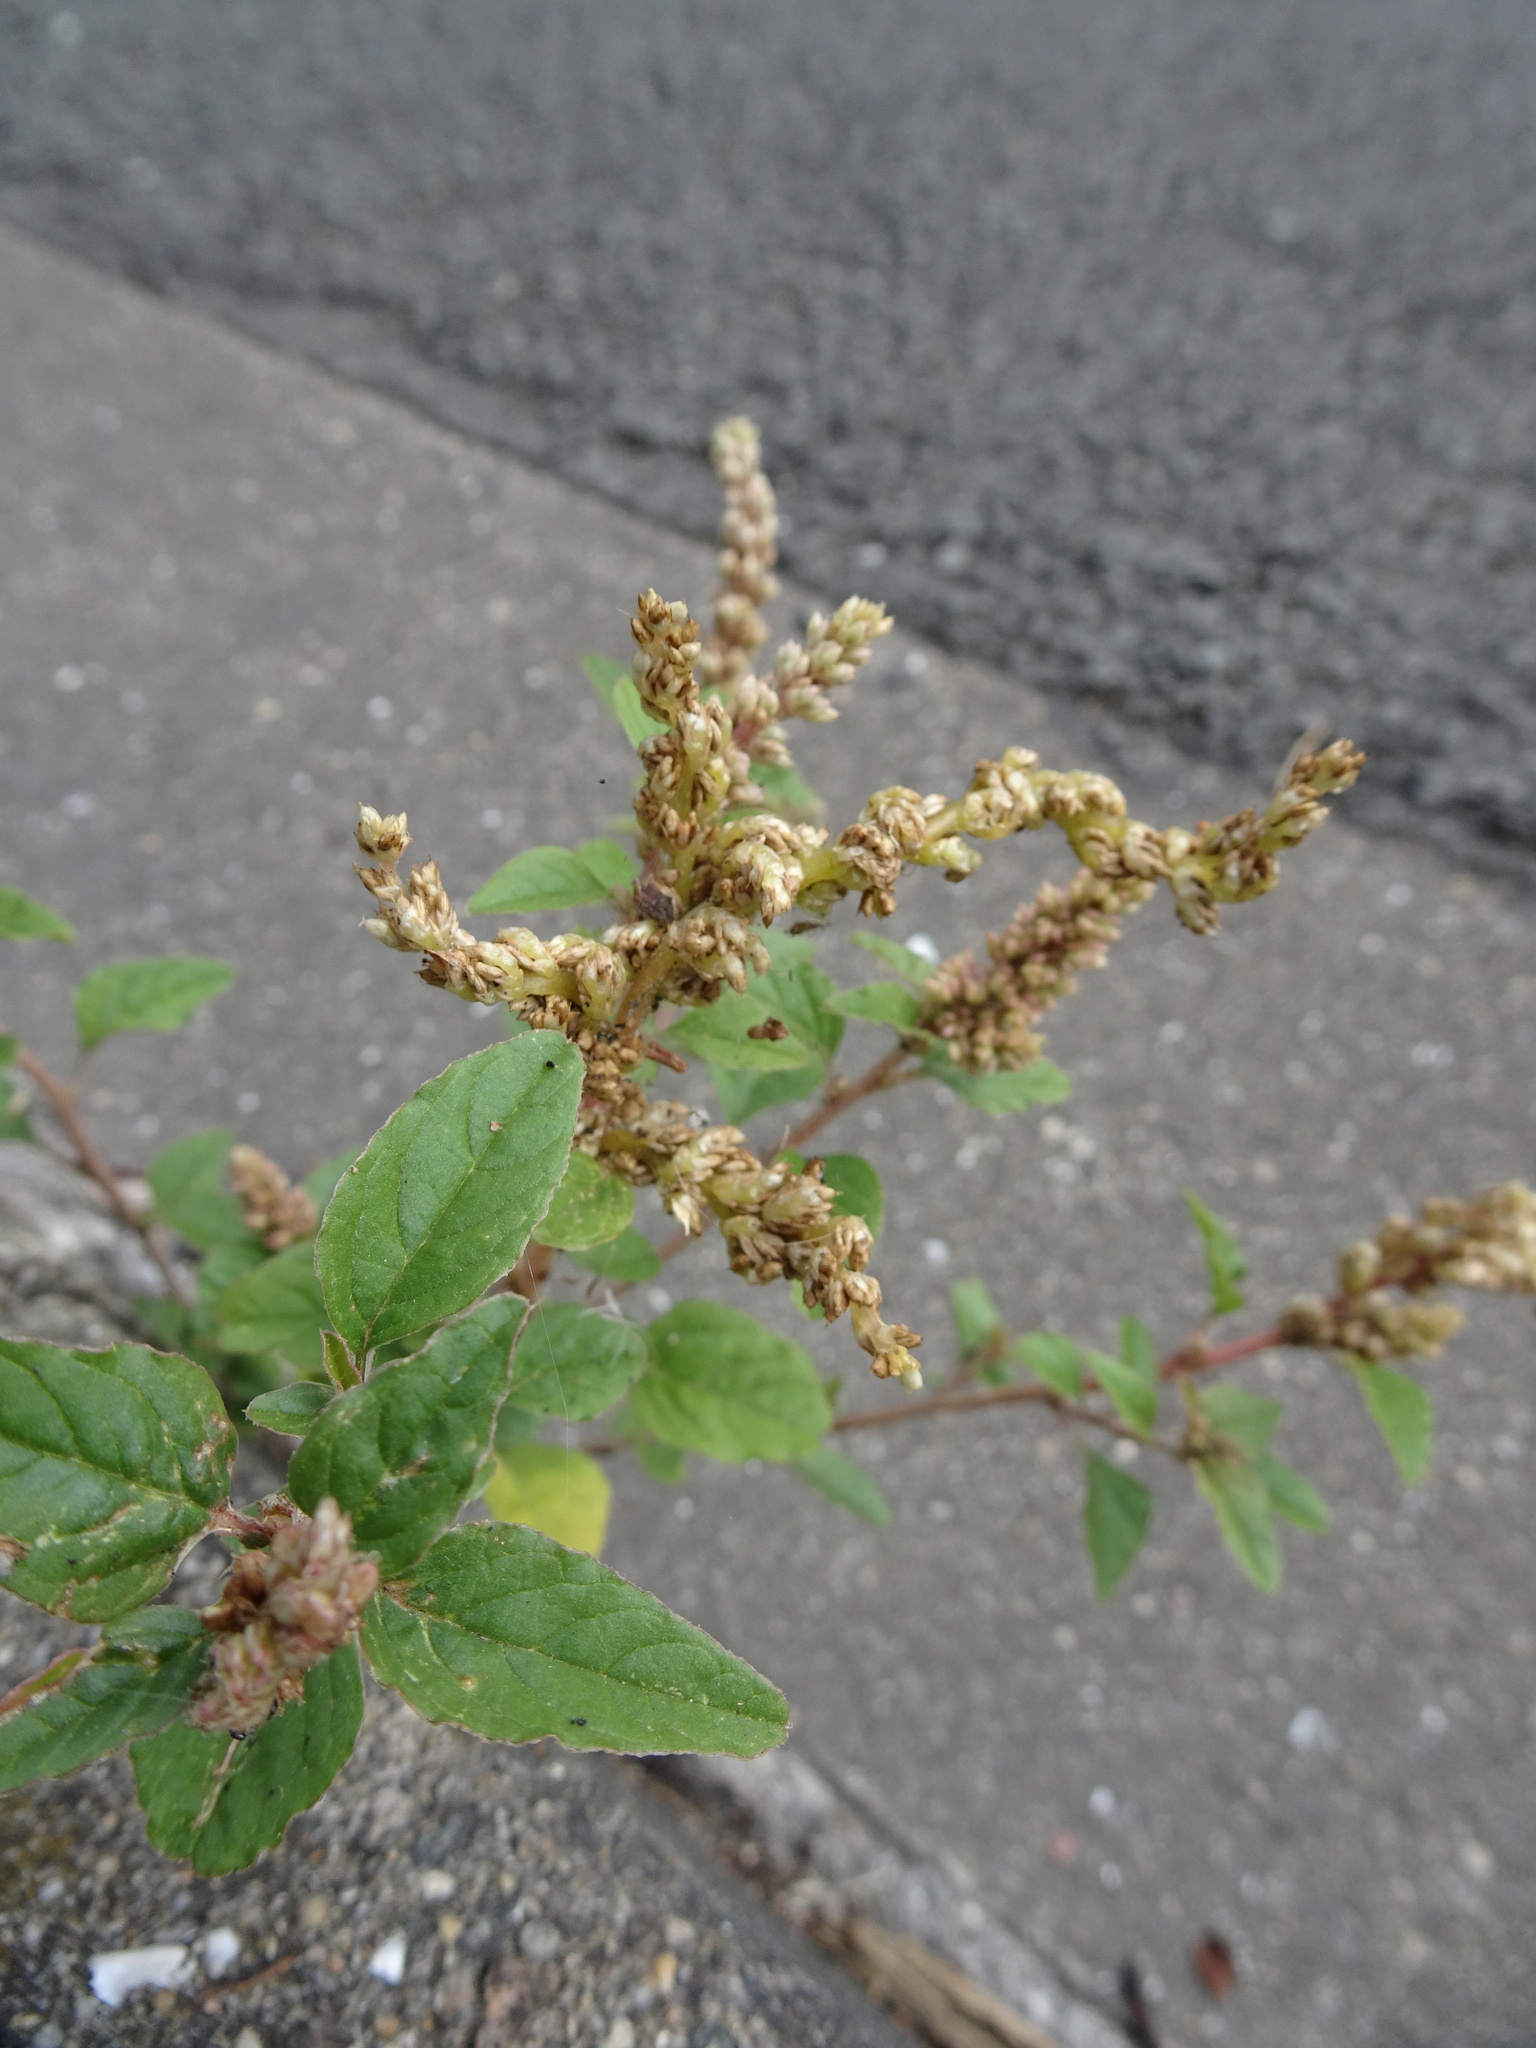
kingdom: Plantae
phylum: Tracheophyta
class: Magnoliopsida
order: Caryophyllales
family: Amaranthaceae
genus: Amaranthus
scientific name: Amaranthus deflexus
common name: Perennial pigweed
